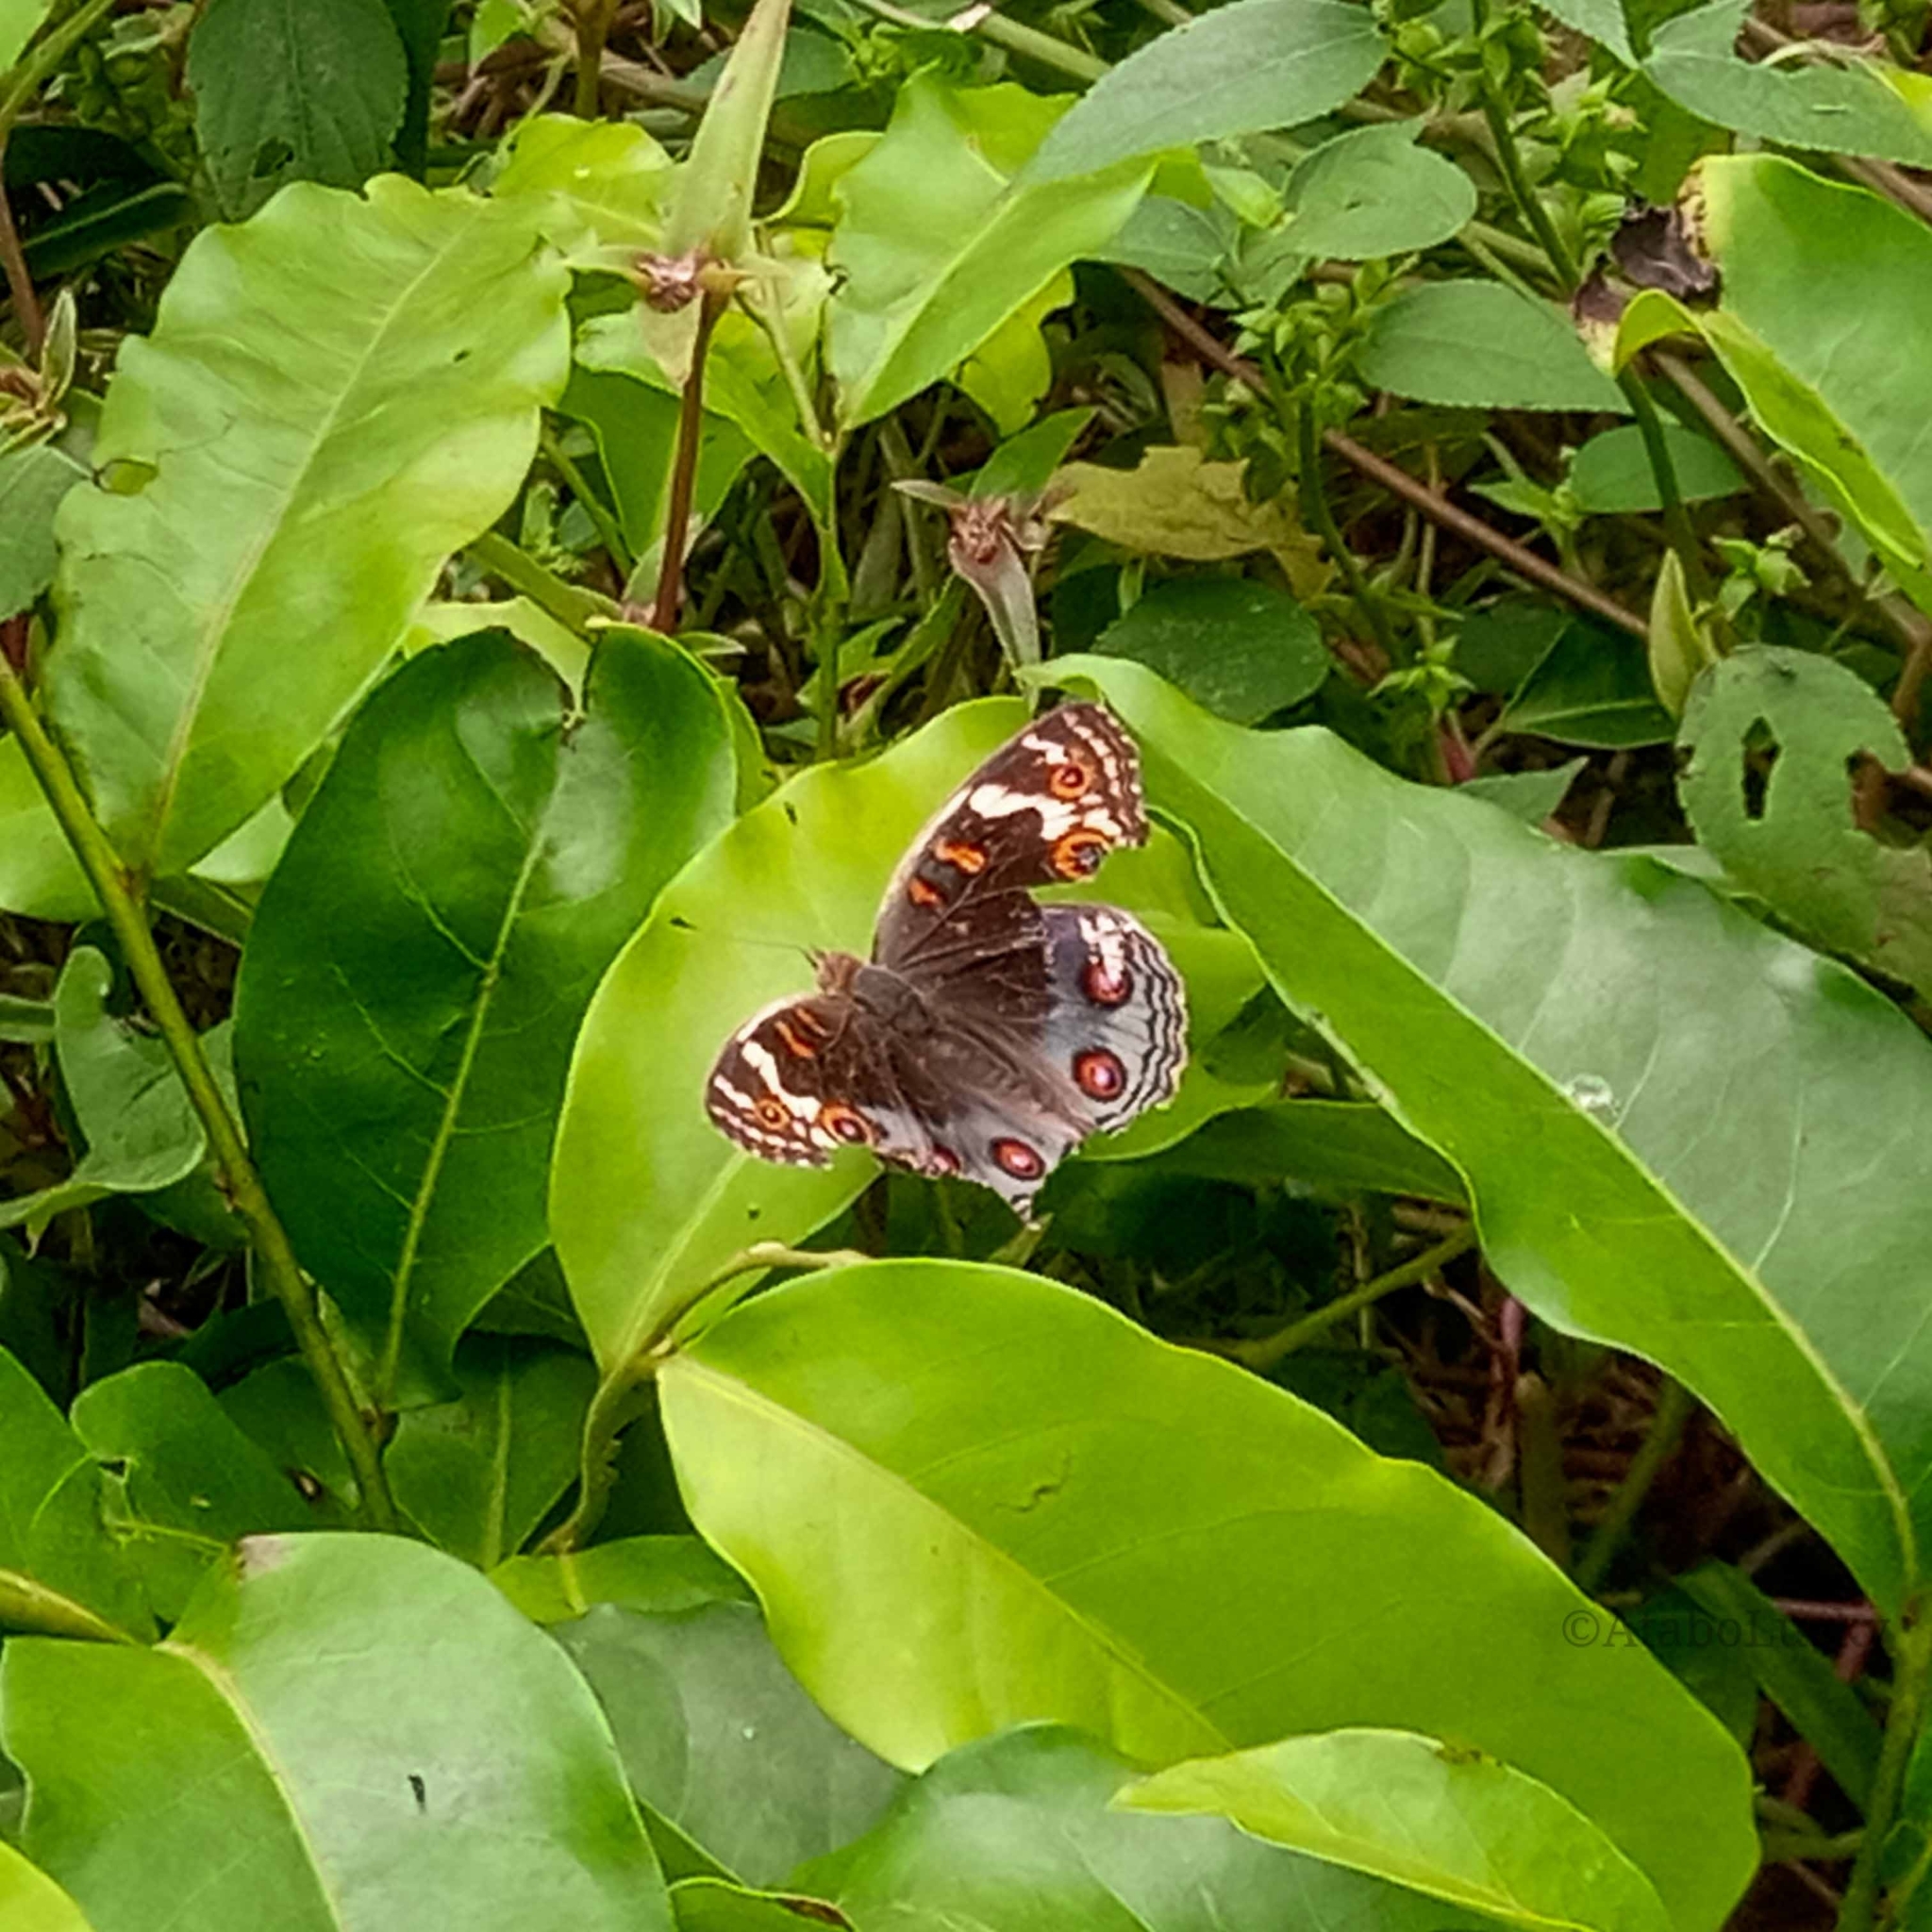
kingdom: Animalia
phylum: Arthropoda
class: Insecta
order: Lepidoptera
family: Nymphalidae
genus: Junonia
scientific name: Junonia orithya
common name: Blue pansy
